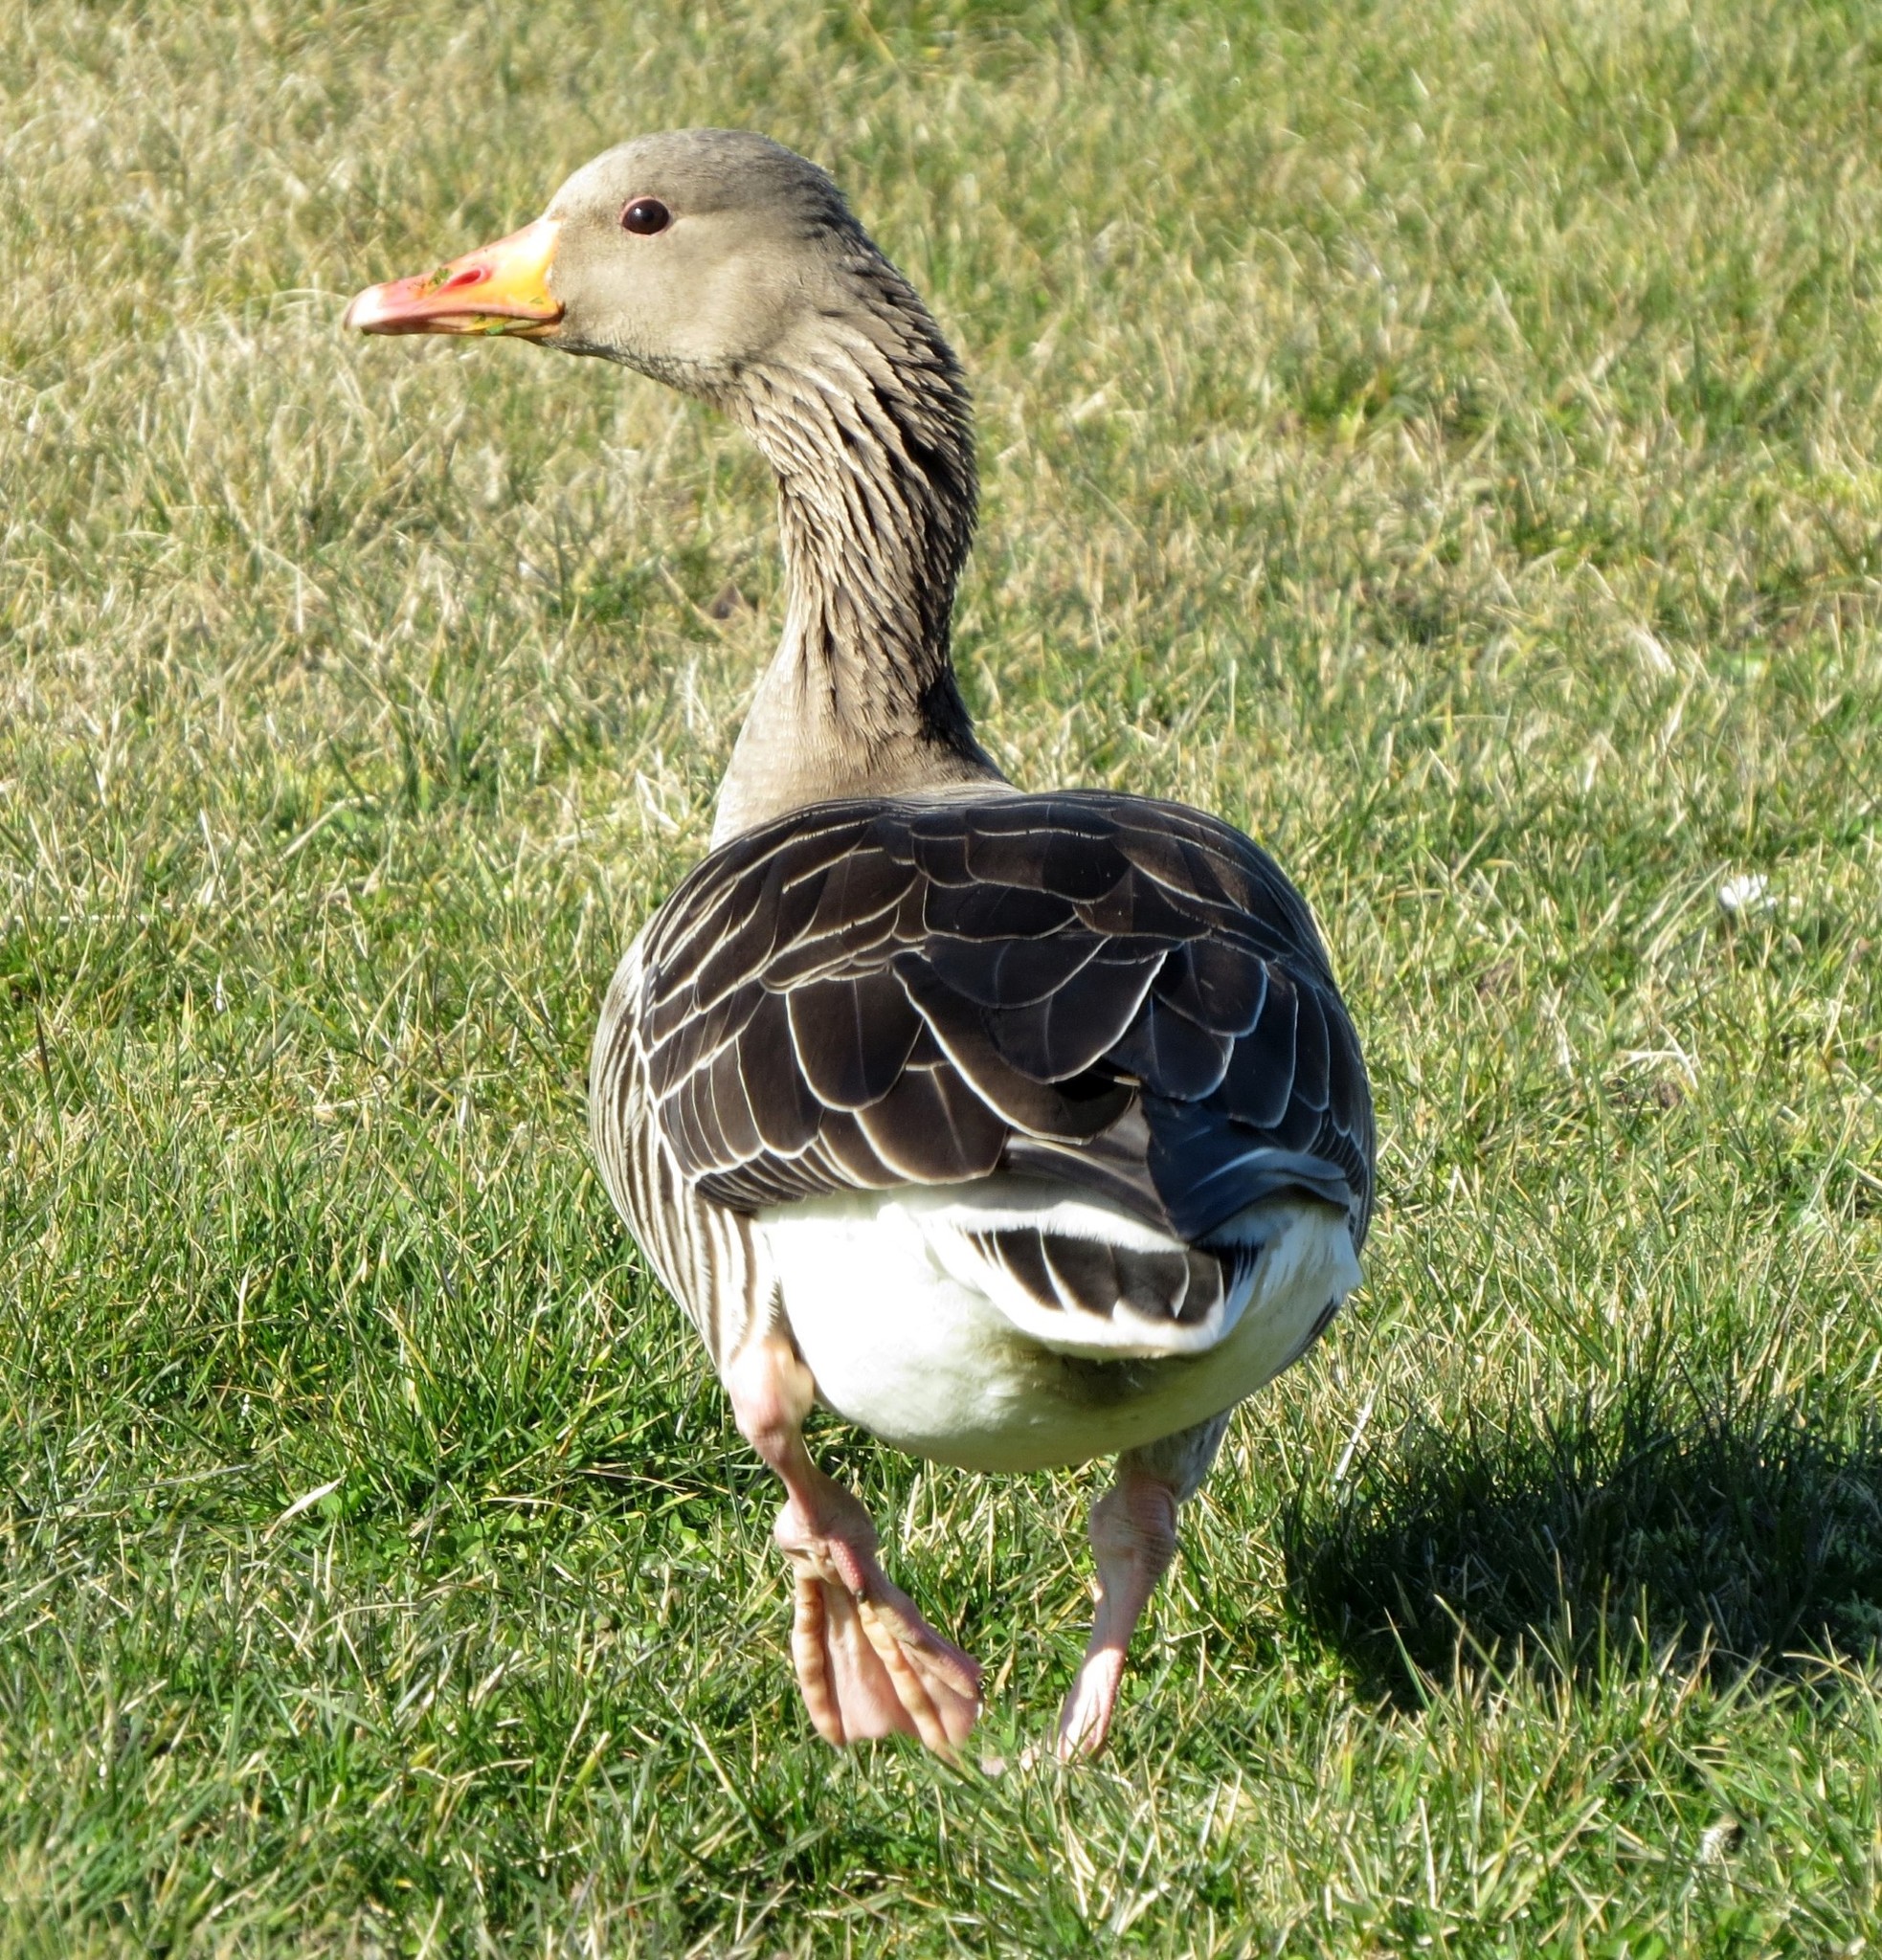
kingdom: Animalia
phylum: Chordata
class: Aves
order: Anseriformes
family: Anatidae
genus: Anser
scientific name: Anser anser
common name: Greylag goose
